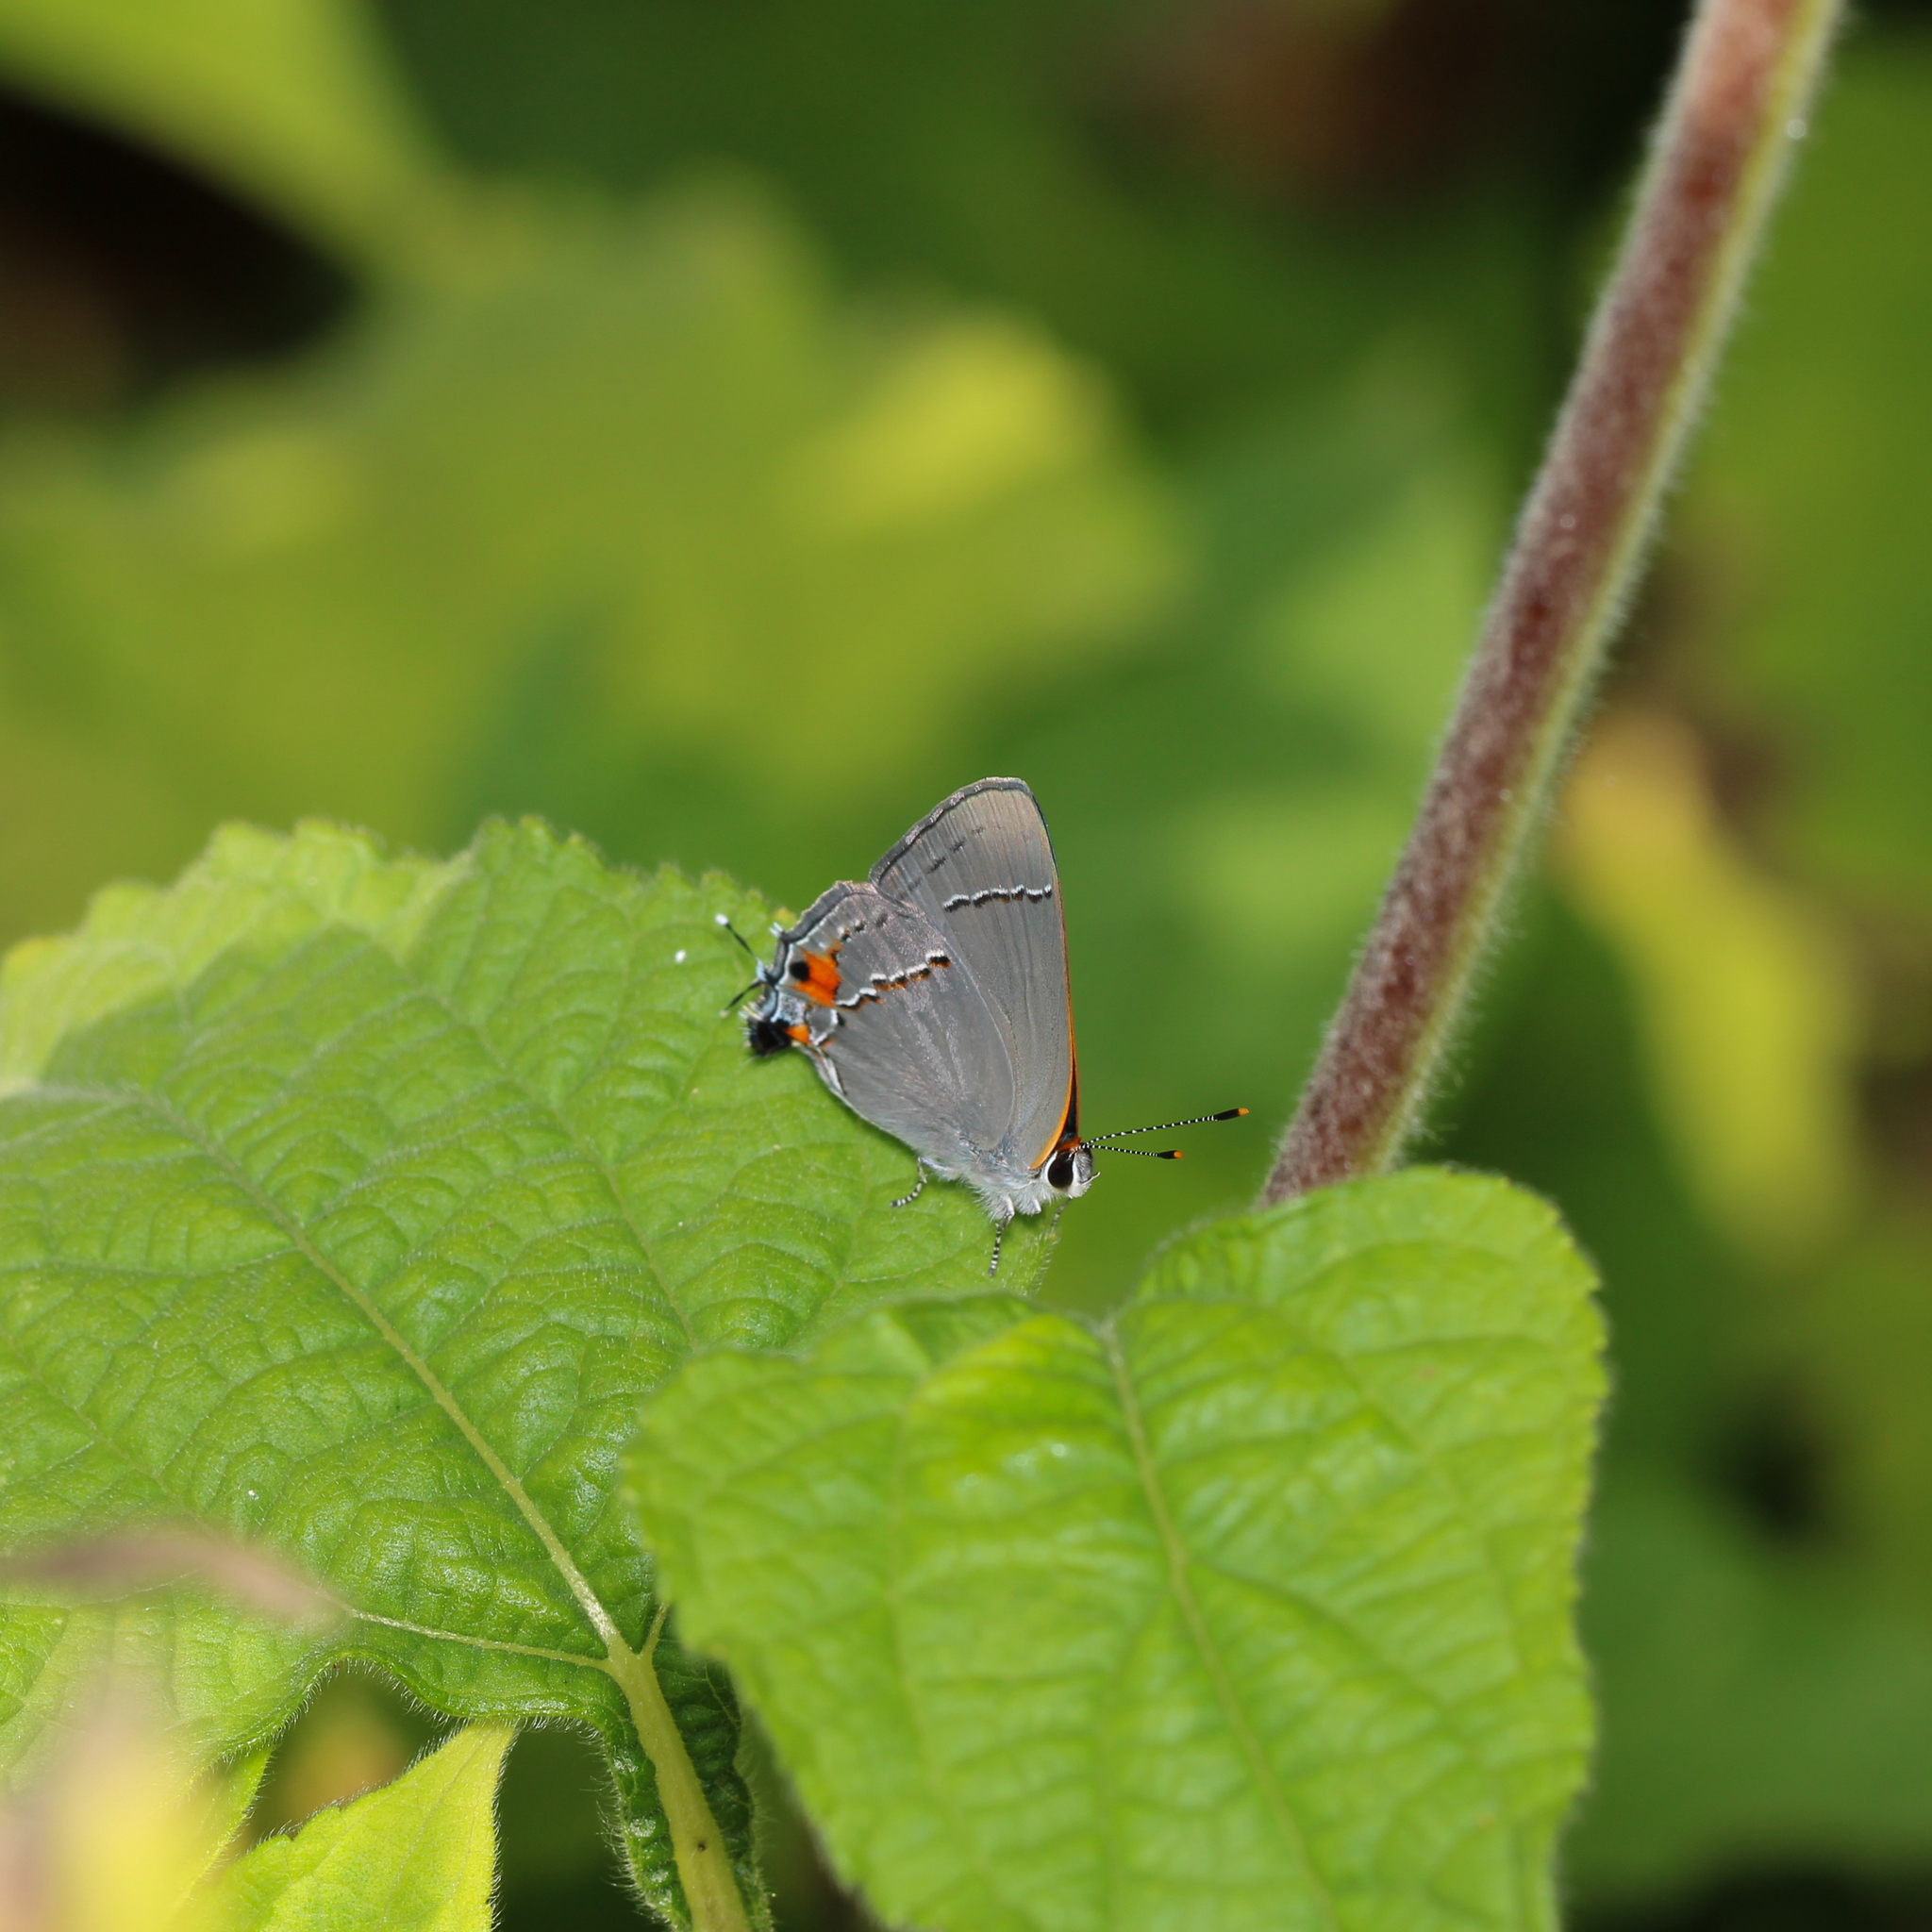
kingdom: Animalia
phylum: Arthropoda
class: Insecta
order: Lepidoptera
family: Lycaenidae
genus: Strymon
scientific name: Strymon melinus
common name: Gray hairstreak
